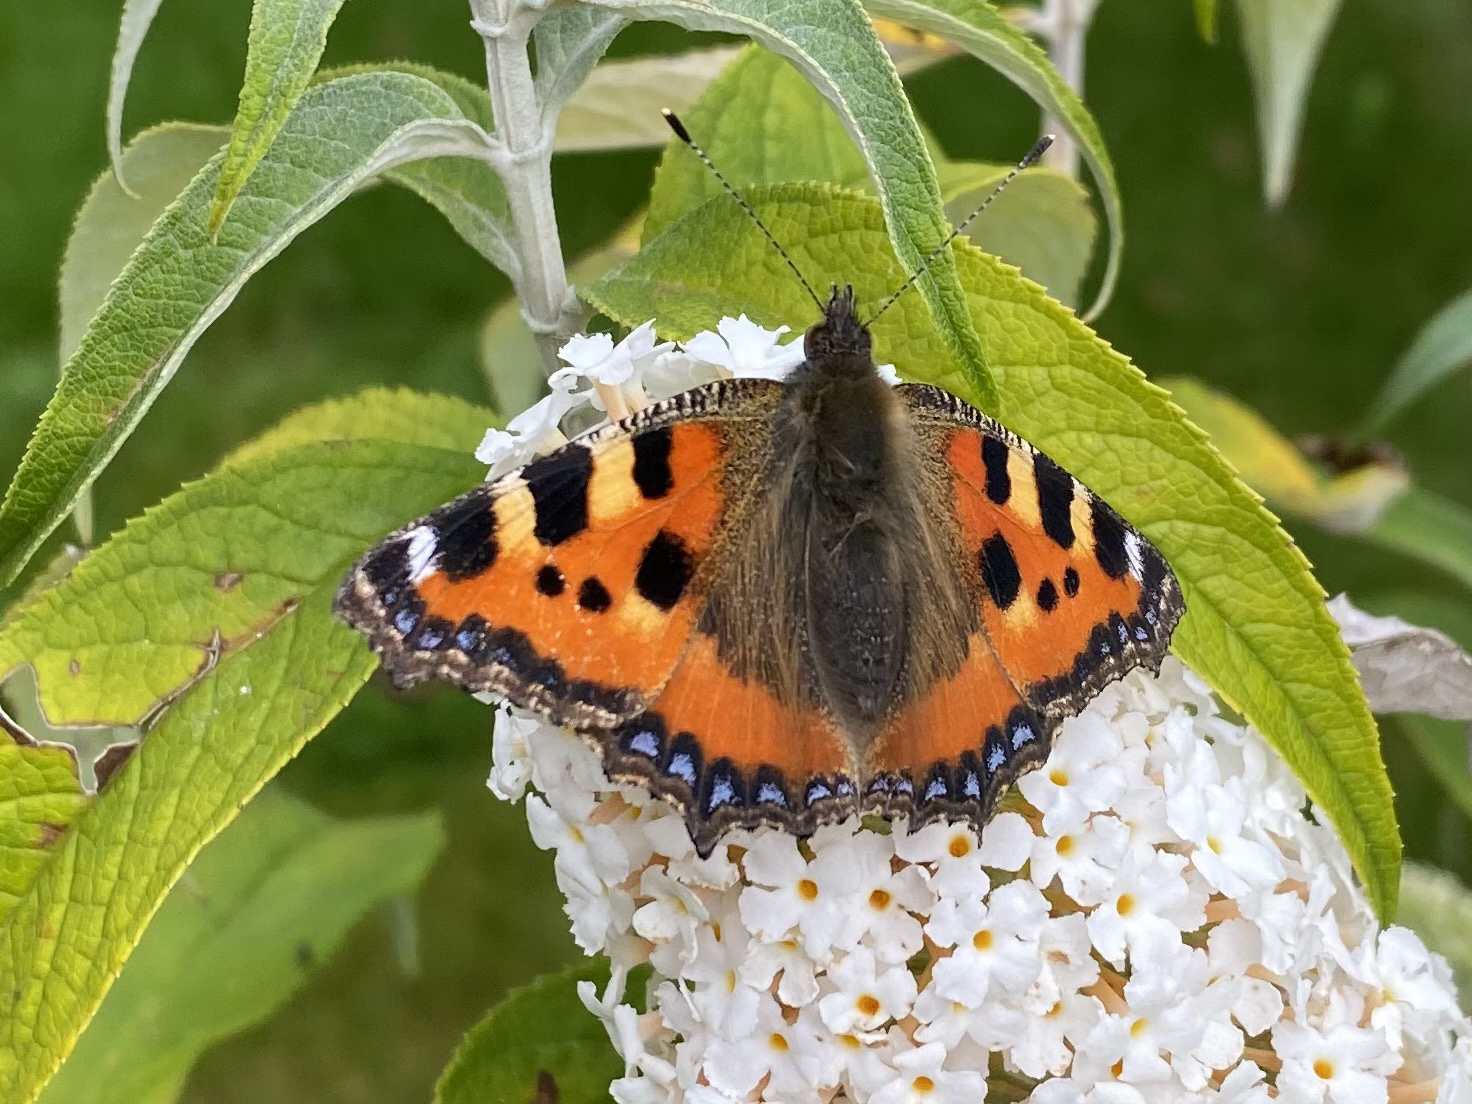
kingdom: Animalia
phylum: Arthropoda
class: Insecta
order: Lepidoptera
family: Nymphalidae
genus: Aglais
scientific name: Aglais urticae
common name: Small tortoiseshell
